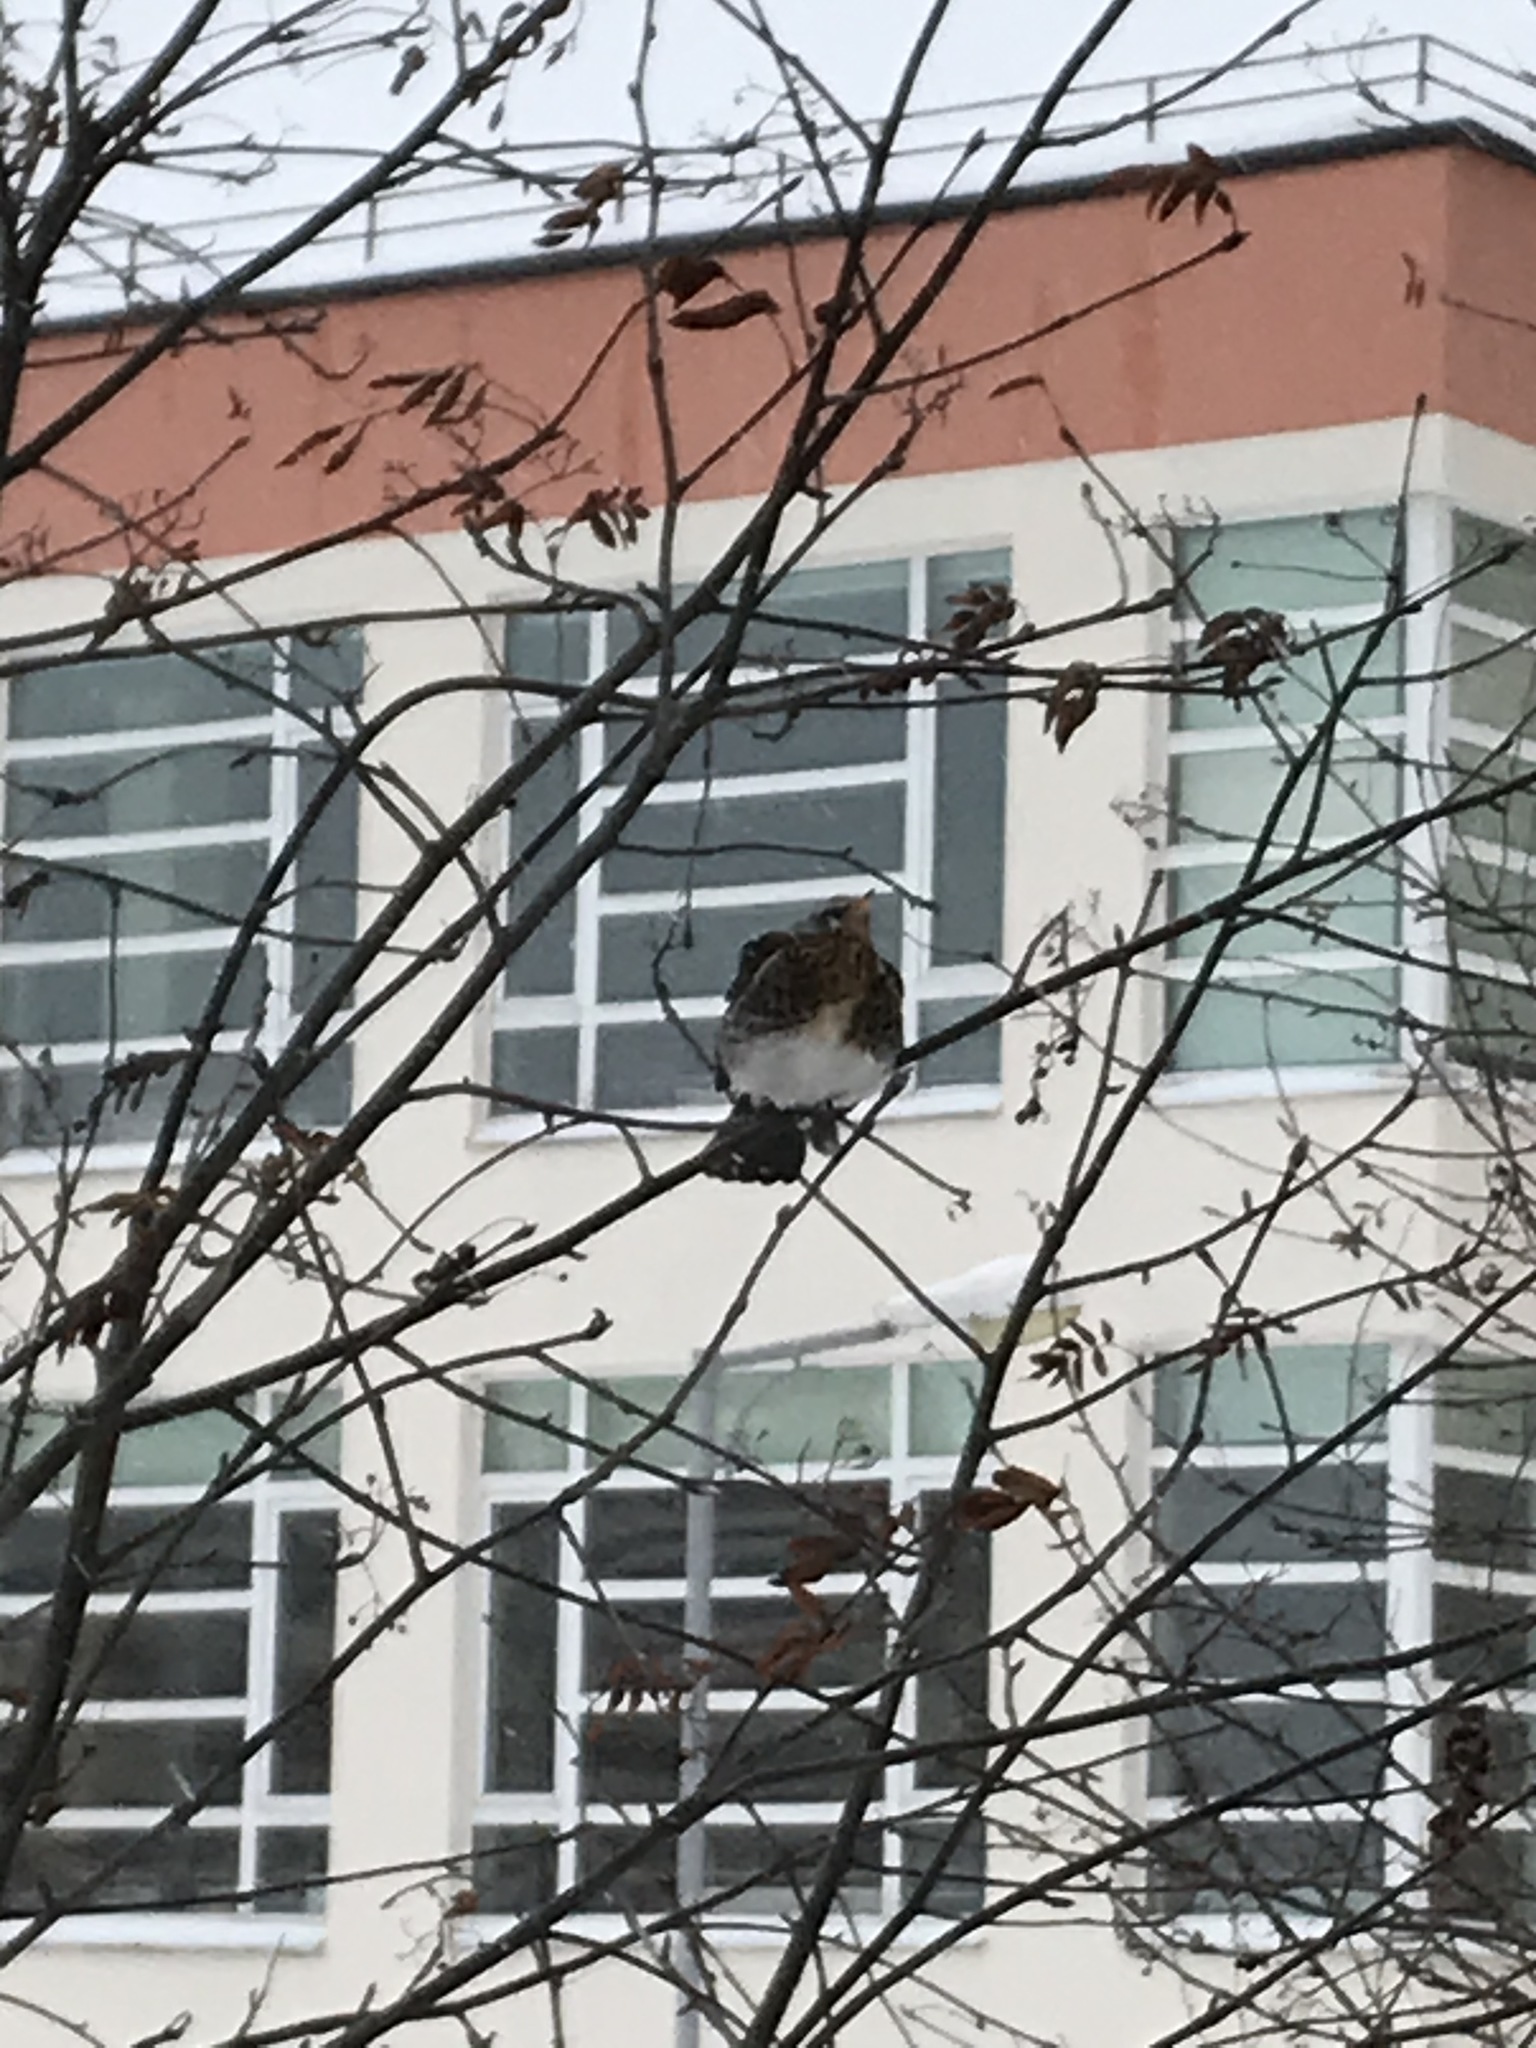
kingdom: Animalia
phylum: Chordata
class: Aves
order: Passeriformes
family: Turdidae
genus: Turdus
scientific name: Turdus pilaris
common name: Fieldfare
